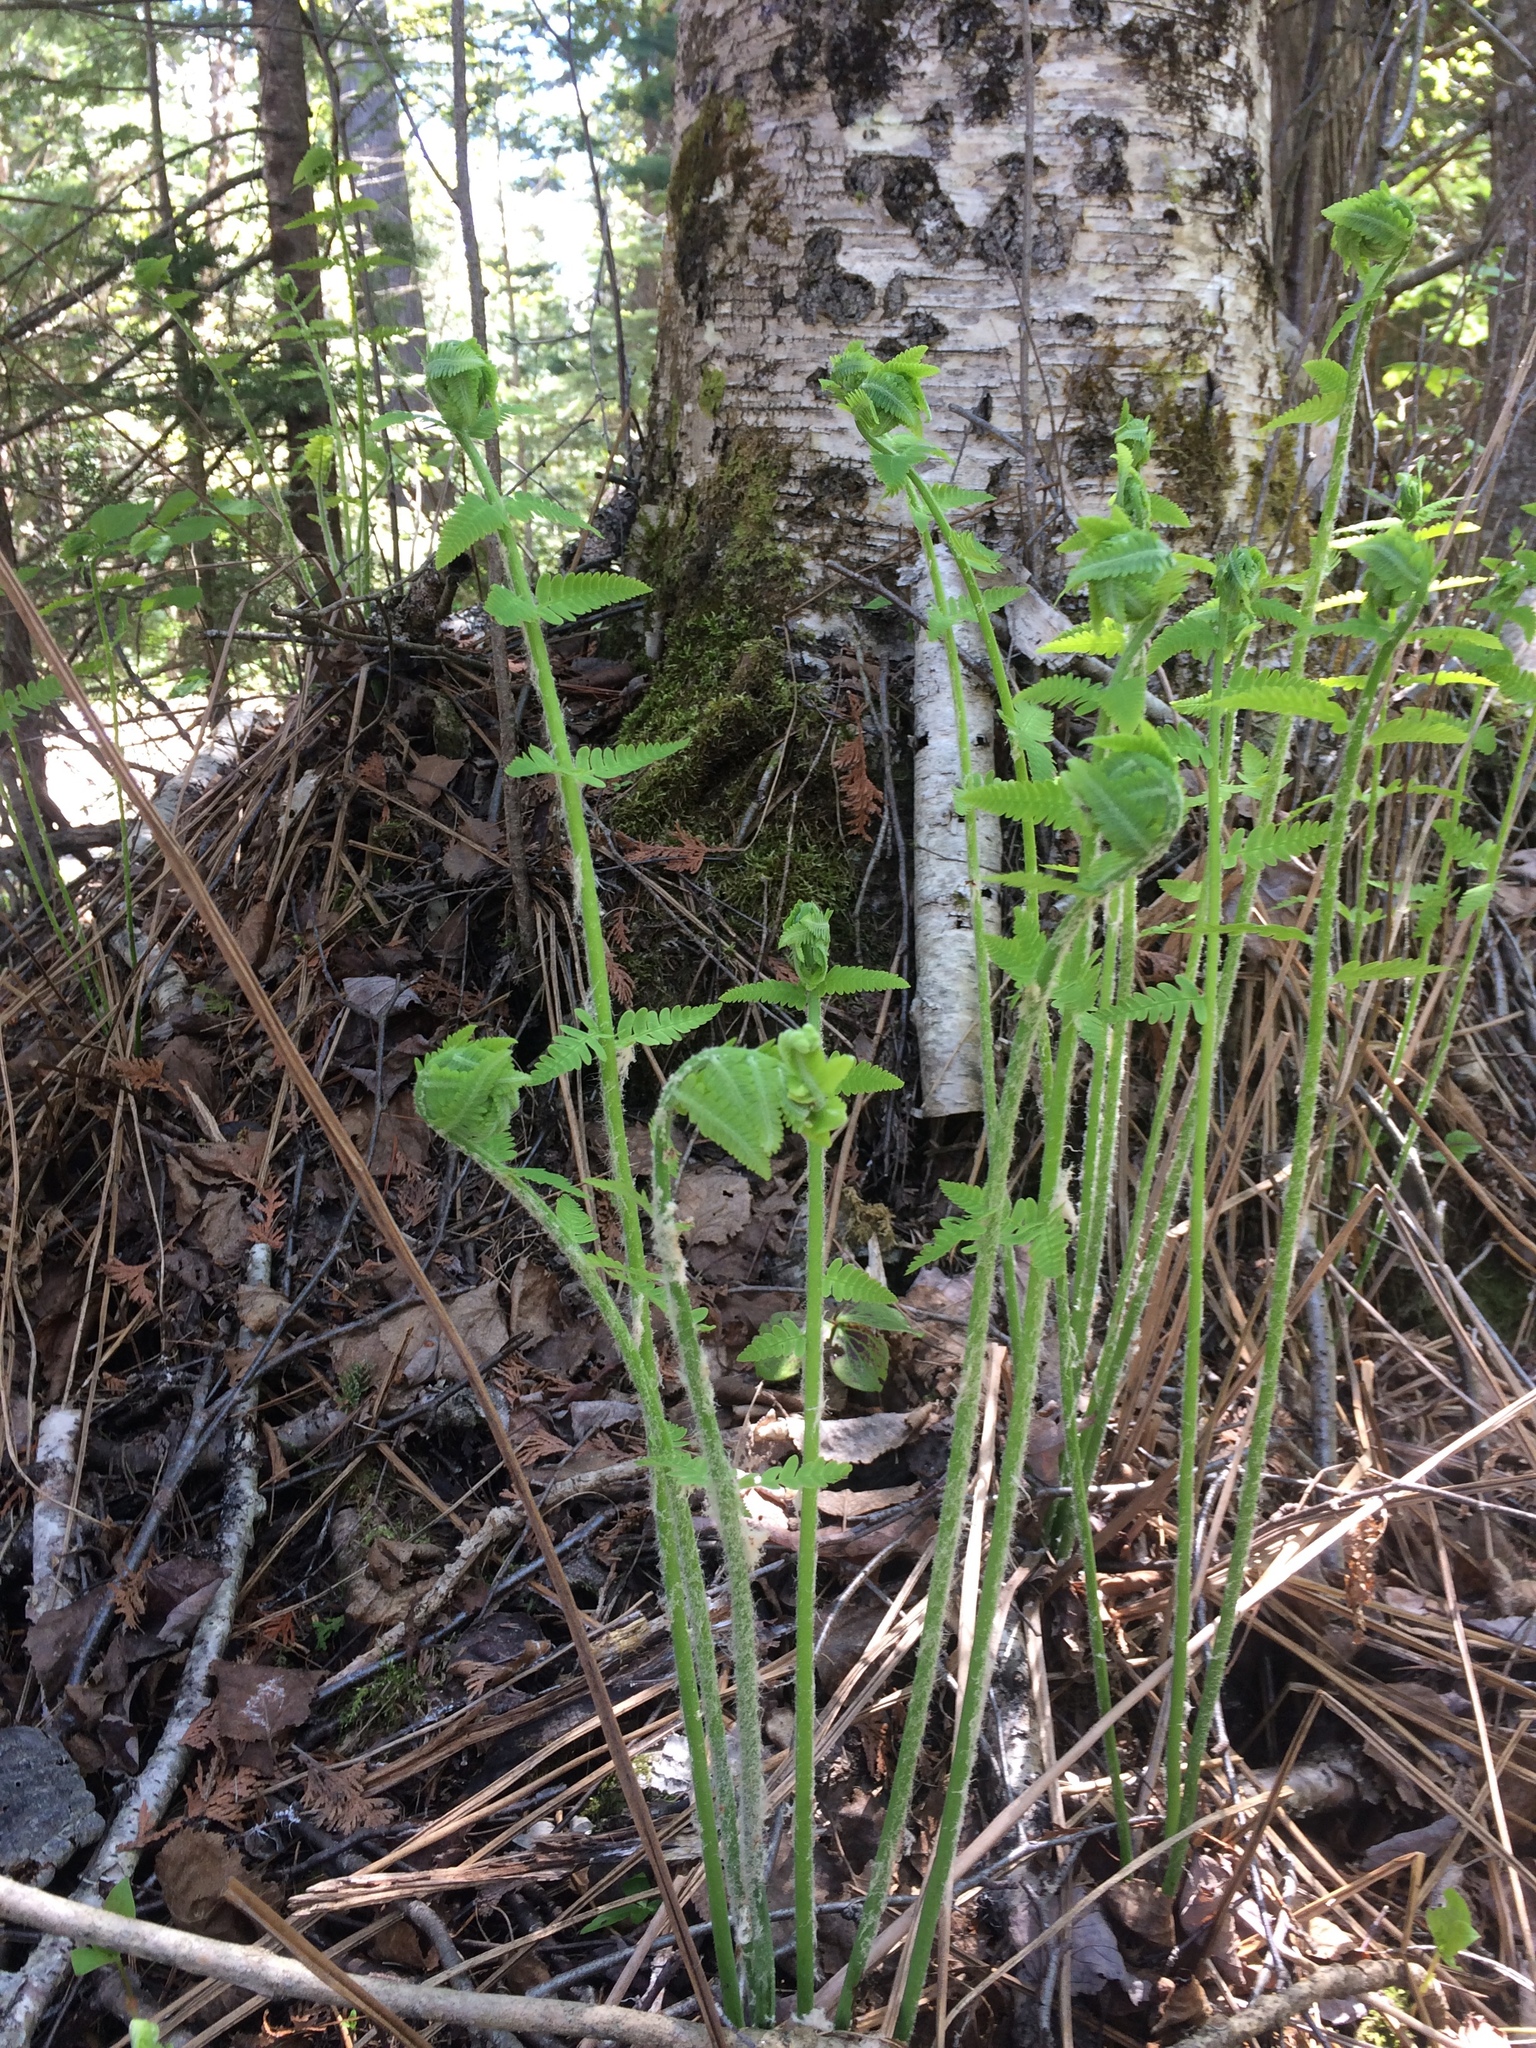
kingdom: Plantae
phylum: Tracheophyta
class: Polypodiopsida
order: Osmundales
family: Osmundaceae
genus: Claytosmunda
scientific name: Claytosmunda claytoniana
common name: Clayton's fern
